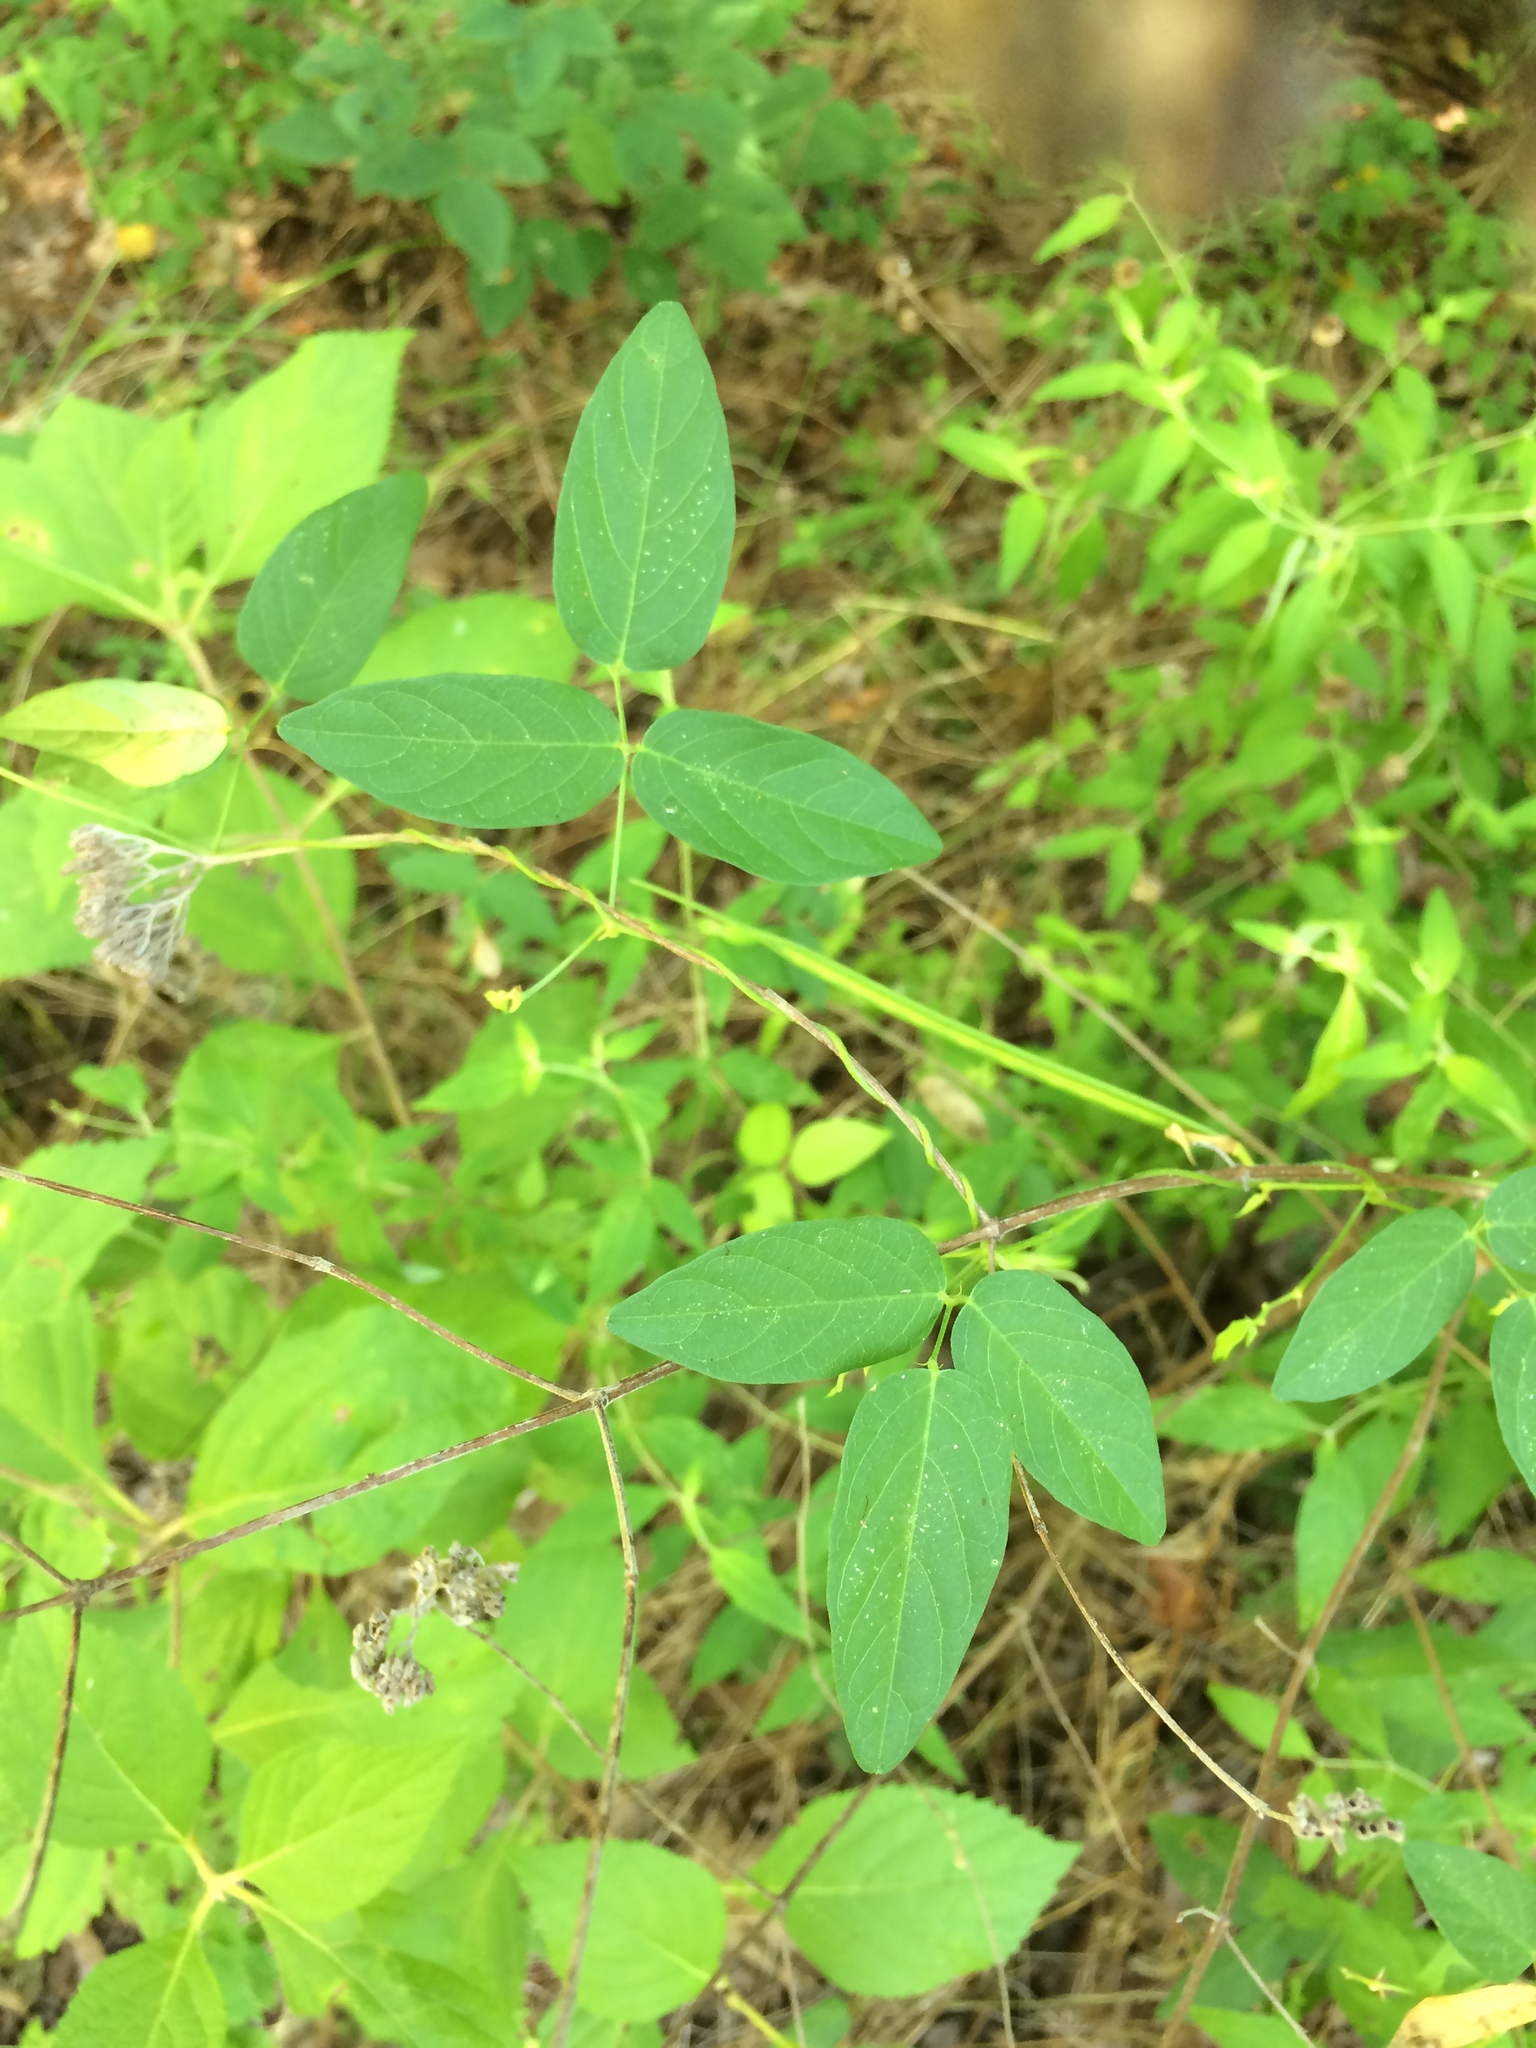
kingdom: Plantae
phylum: Tracheophyta
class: Magnoliopsida
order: Fabales
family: Fabaceae
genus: Centrosema
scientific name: Centrosema virginianum
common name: Butterfly-pea
